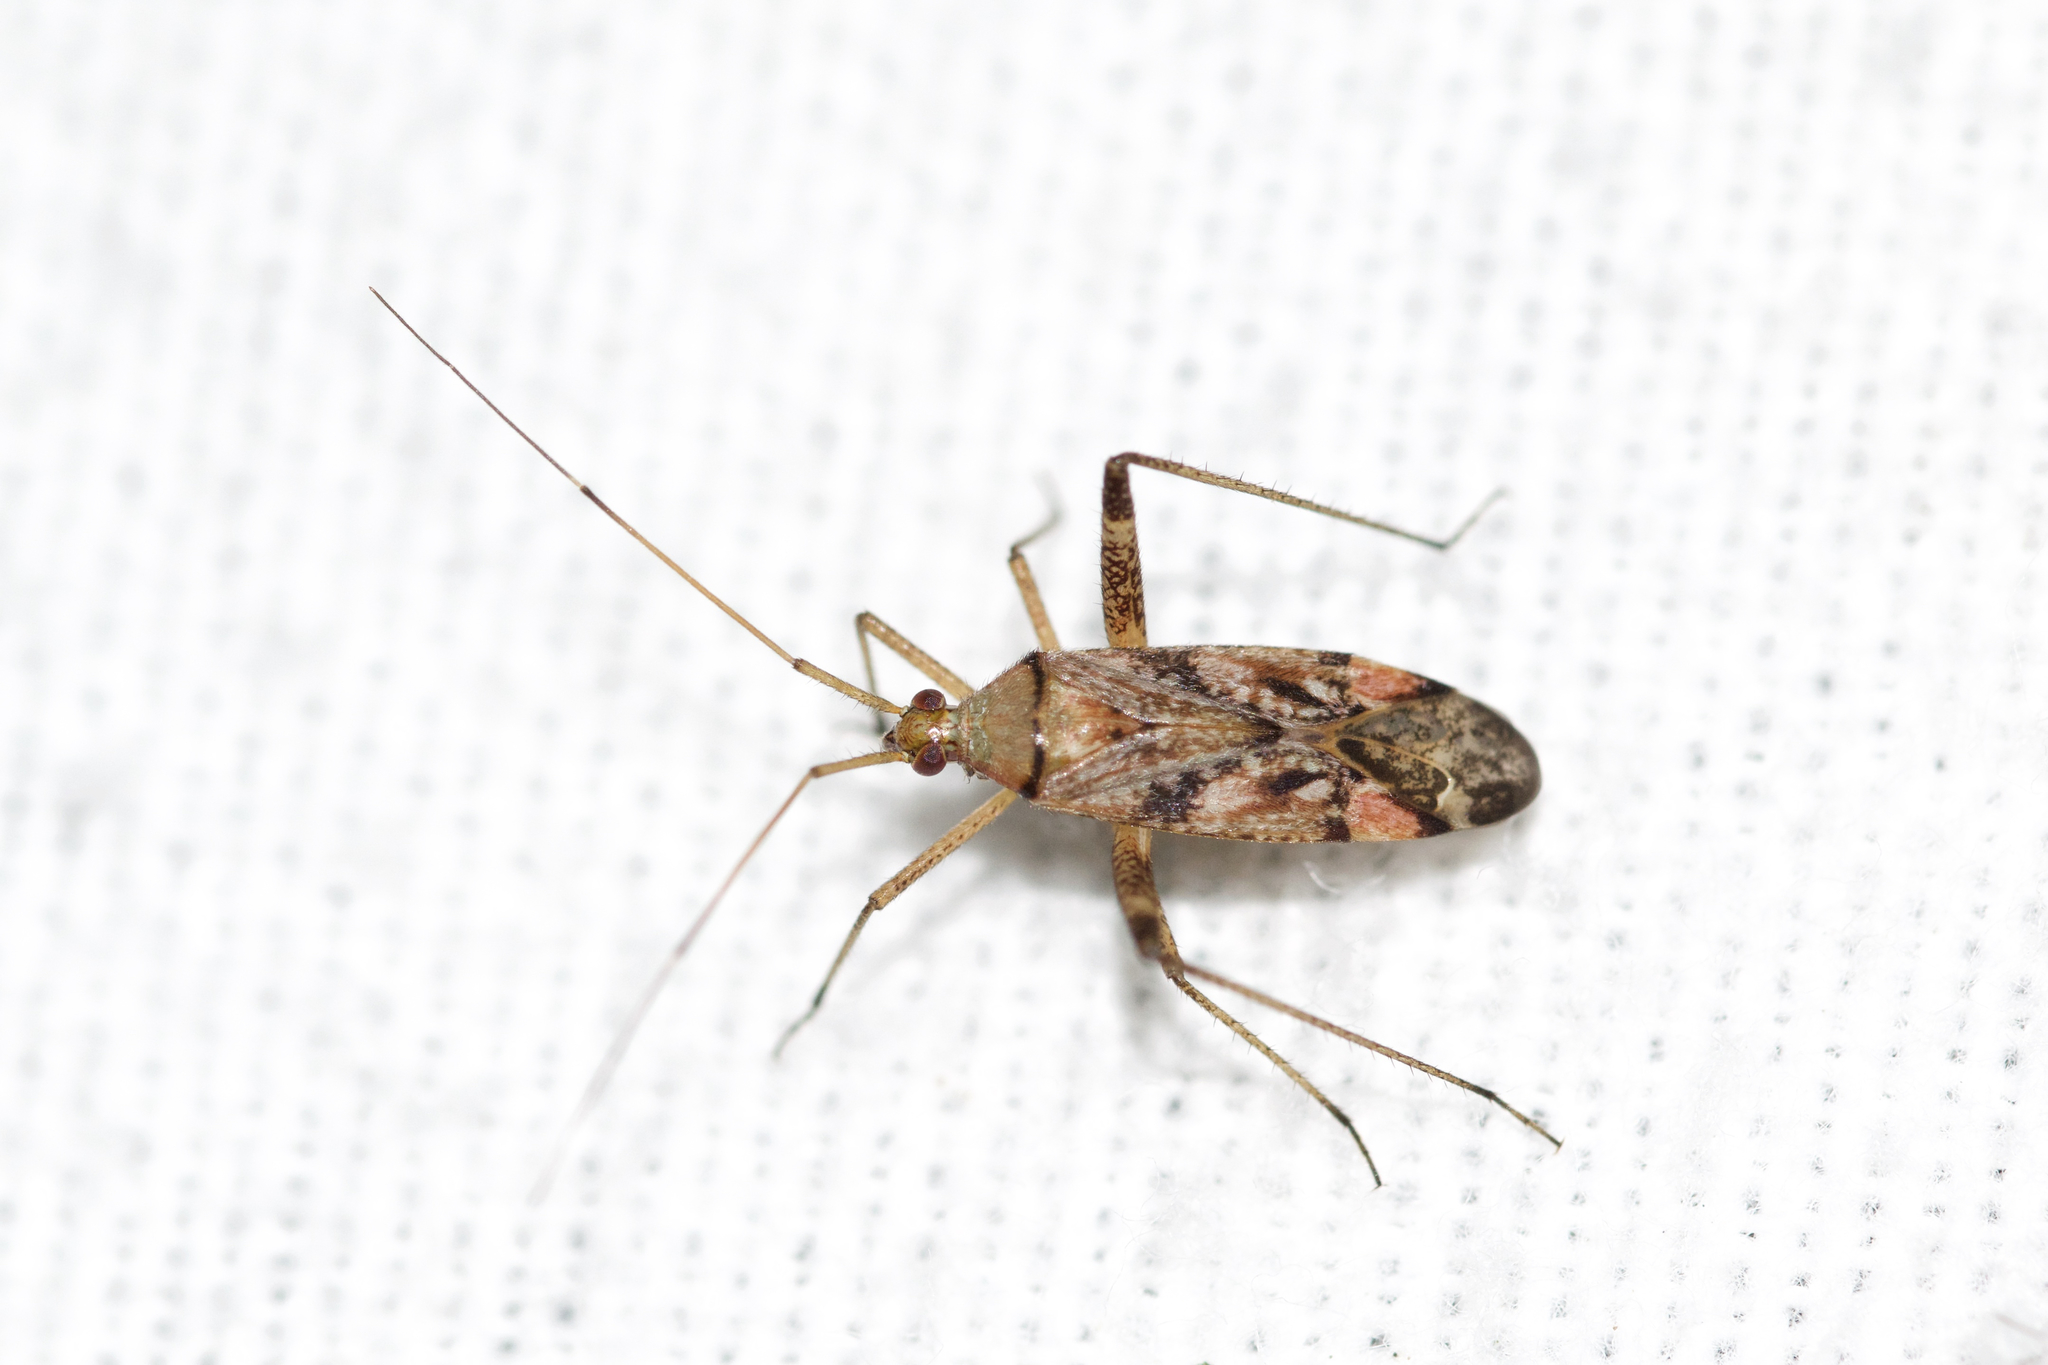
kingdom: Animalia
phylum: Arthropoda
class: Insecta
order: Hemiptera
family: Miridae
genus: Phytocoris
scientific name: Phytocoris
